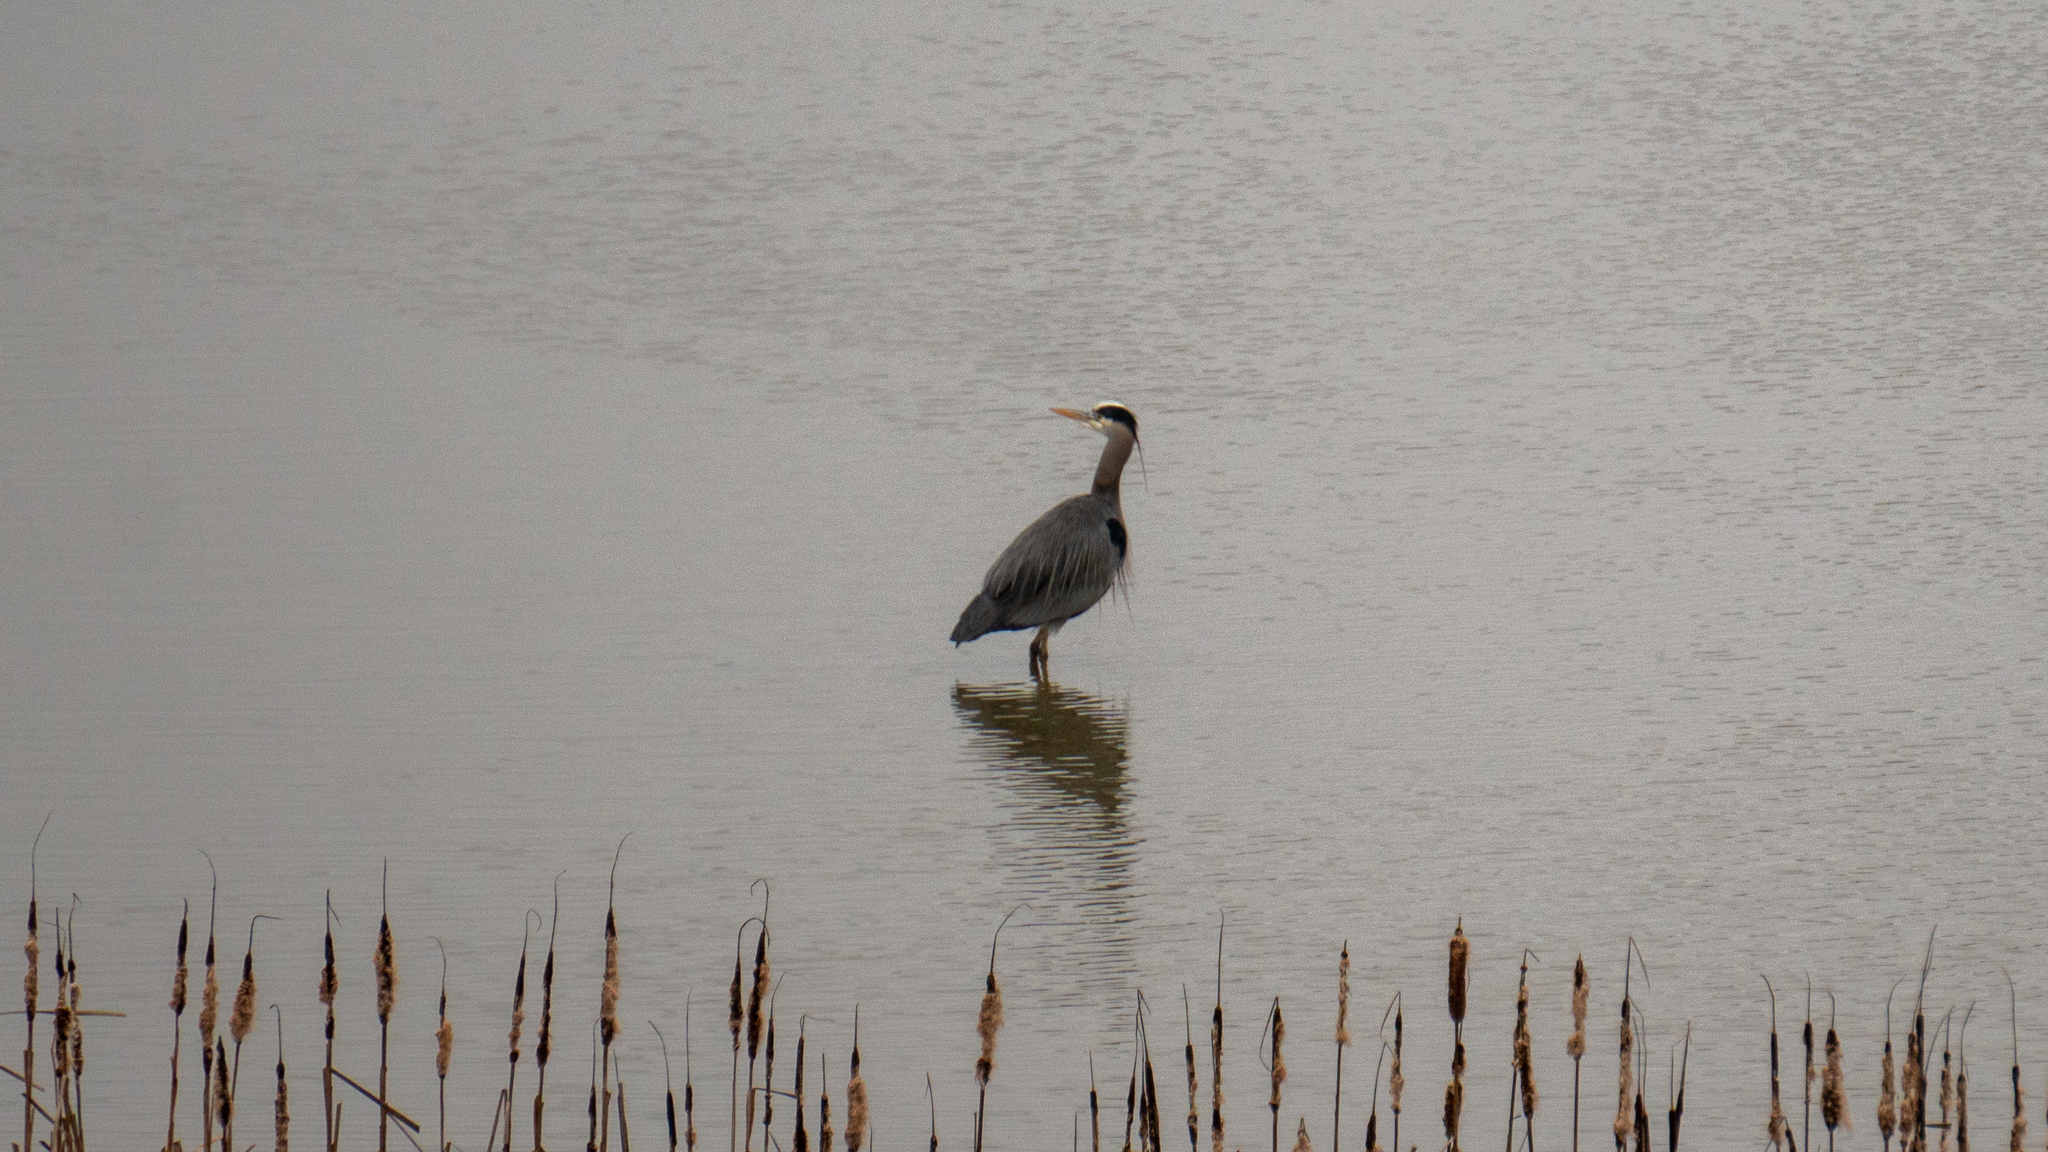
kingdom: Animalia
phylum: Chordata
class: Aves
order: Pelecaniformes
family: Ardeidae
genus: Ardea
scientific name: Ardea herodias
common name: Great blue heron
